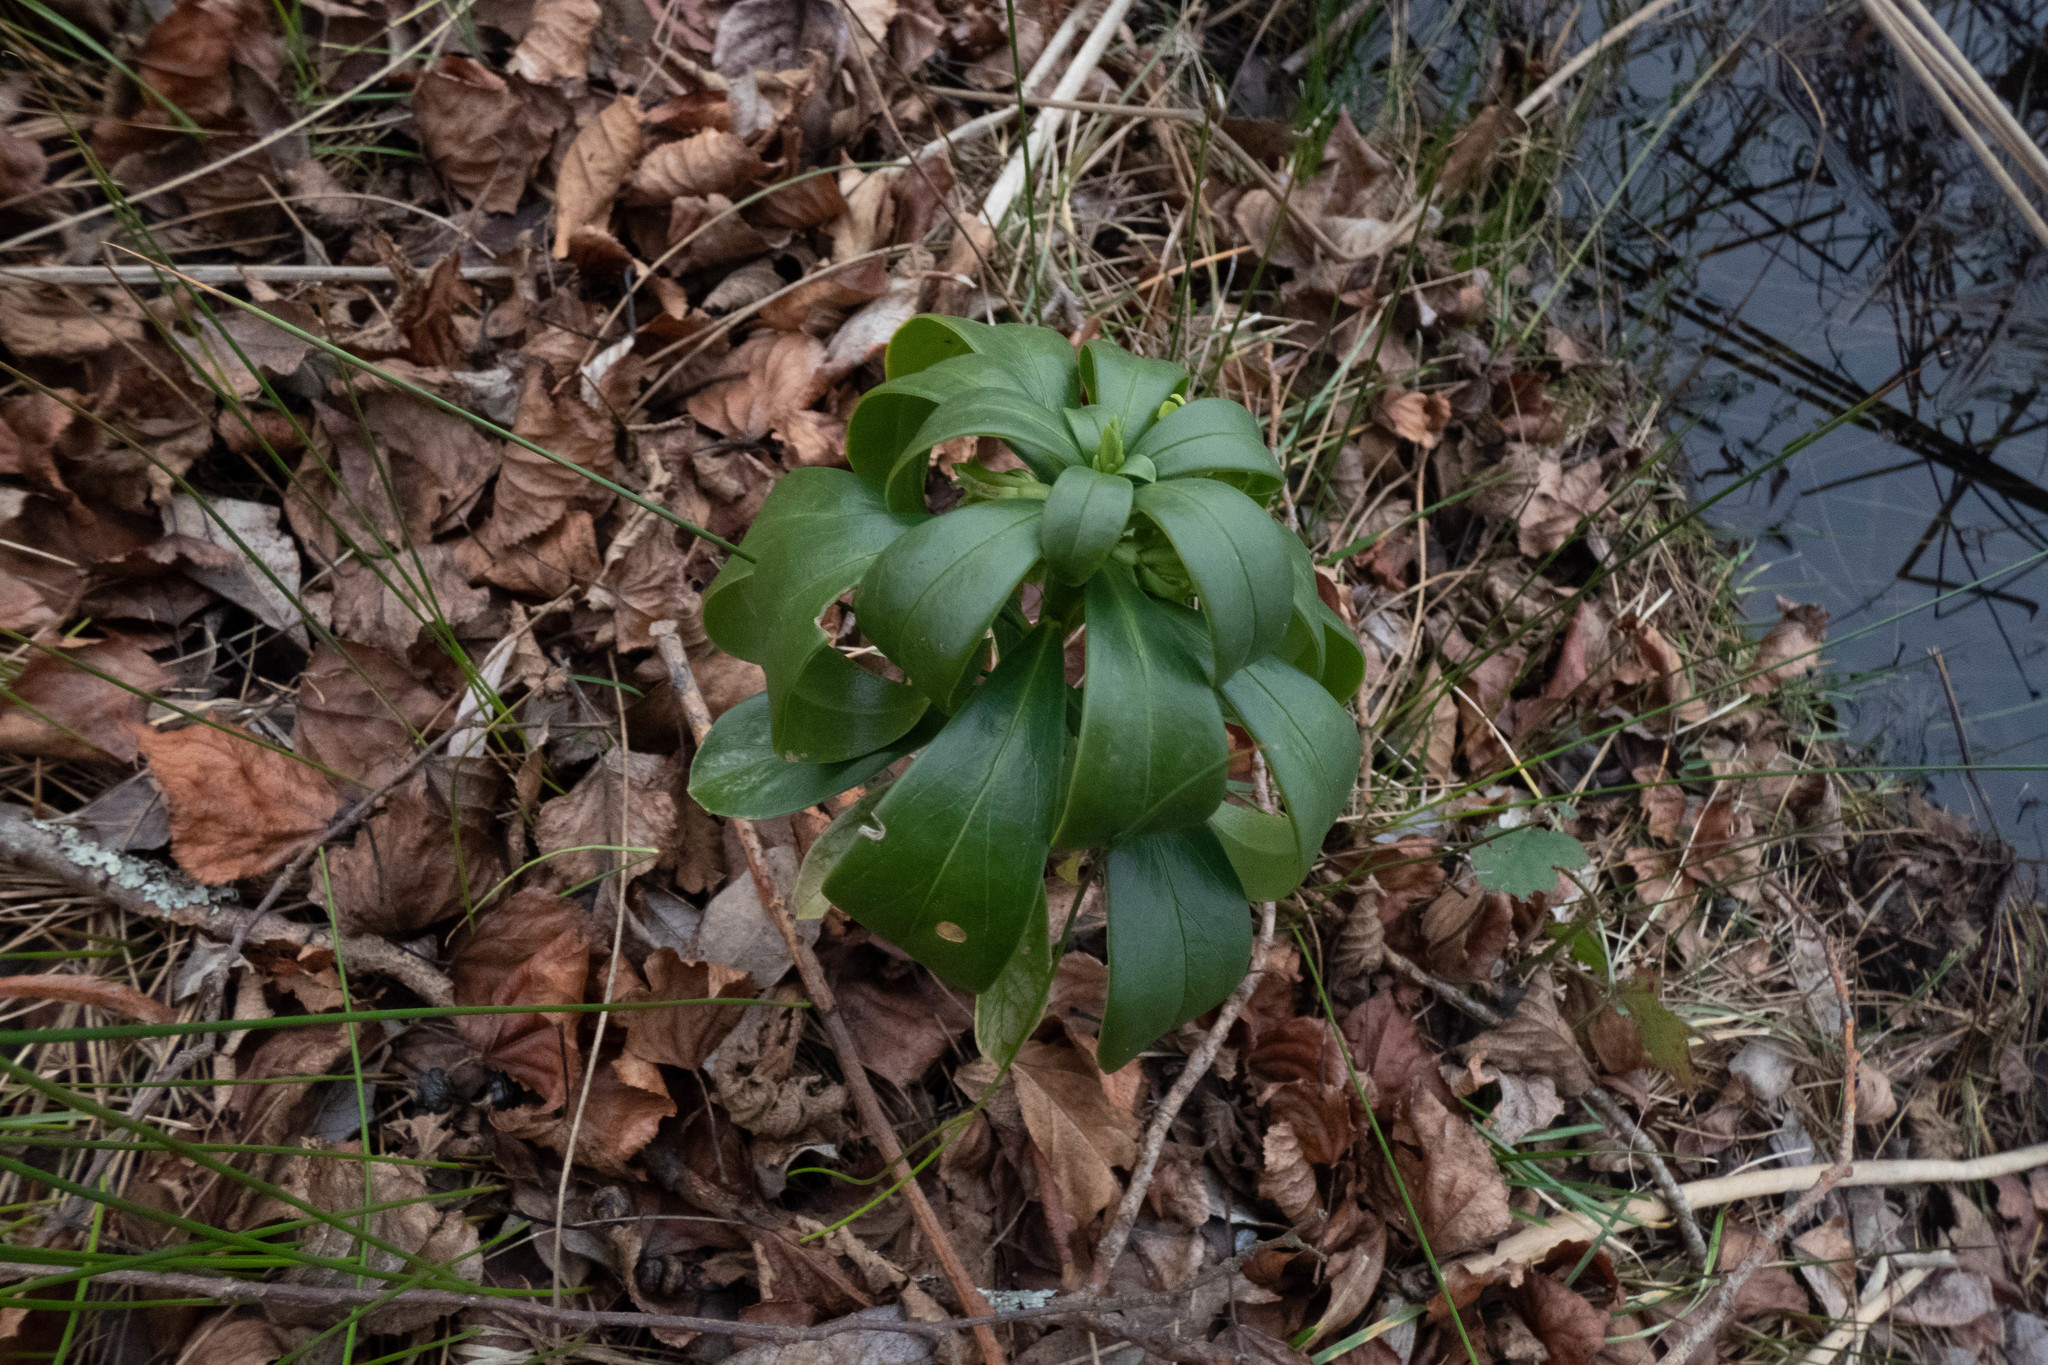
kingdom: Plantae
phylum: Tracheophyta
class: Magnoliopsida
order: Malvales
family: Thymelaeaceae
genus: Daphne
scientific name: Daphne laureola
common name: Spurge-laurel
